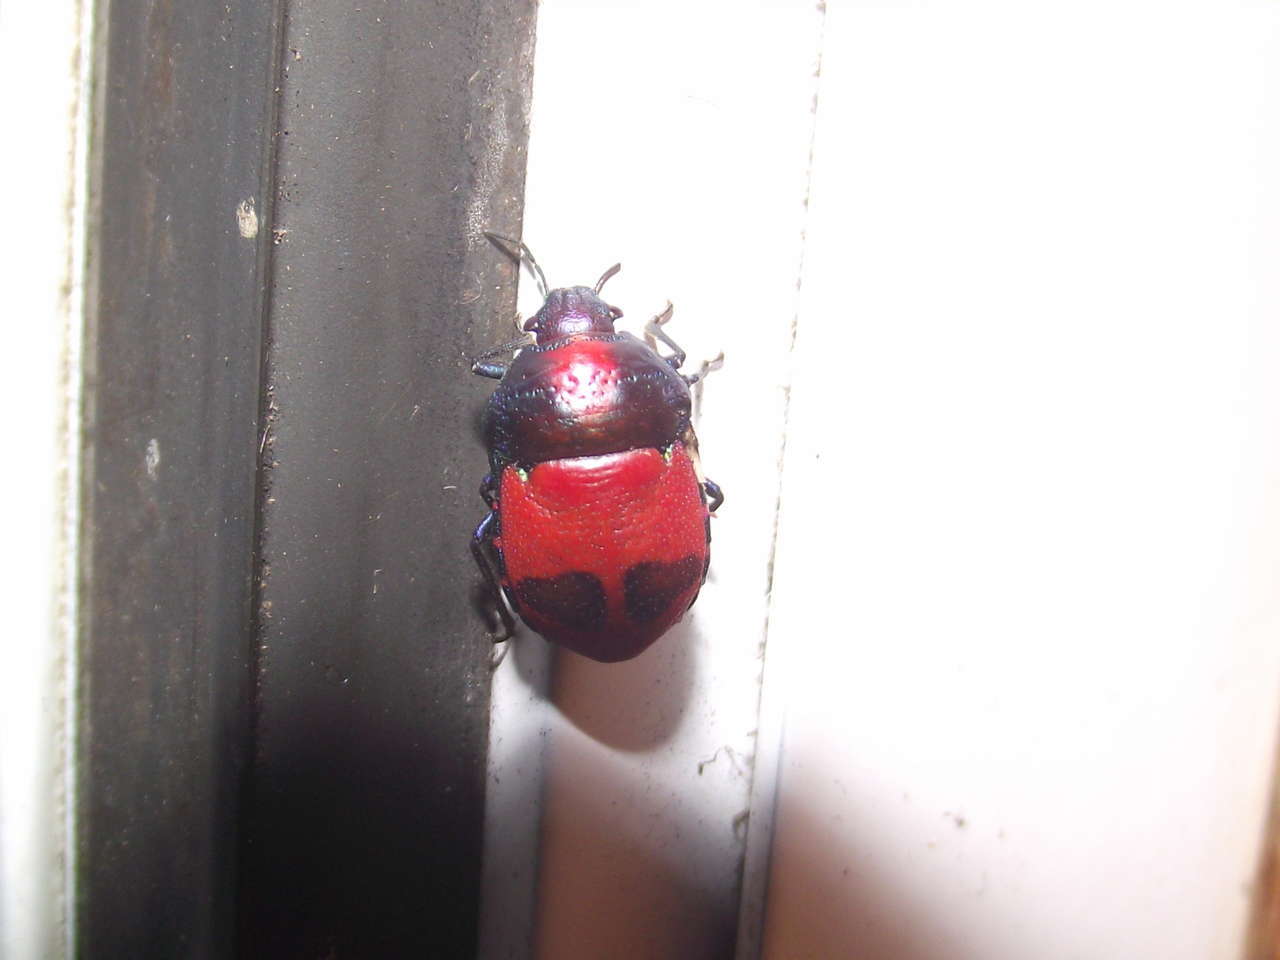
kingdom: Animalia
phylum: Arthropoda
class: Insecta
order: Hemiptera
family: Scutelleridae
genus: Choerocoris
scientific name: Choerocoris paganus
